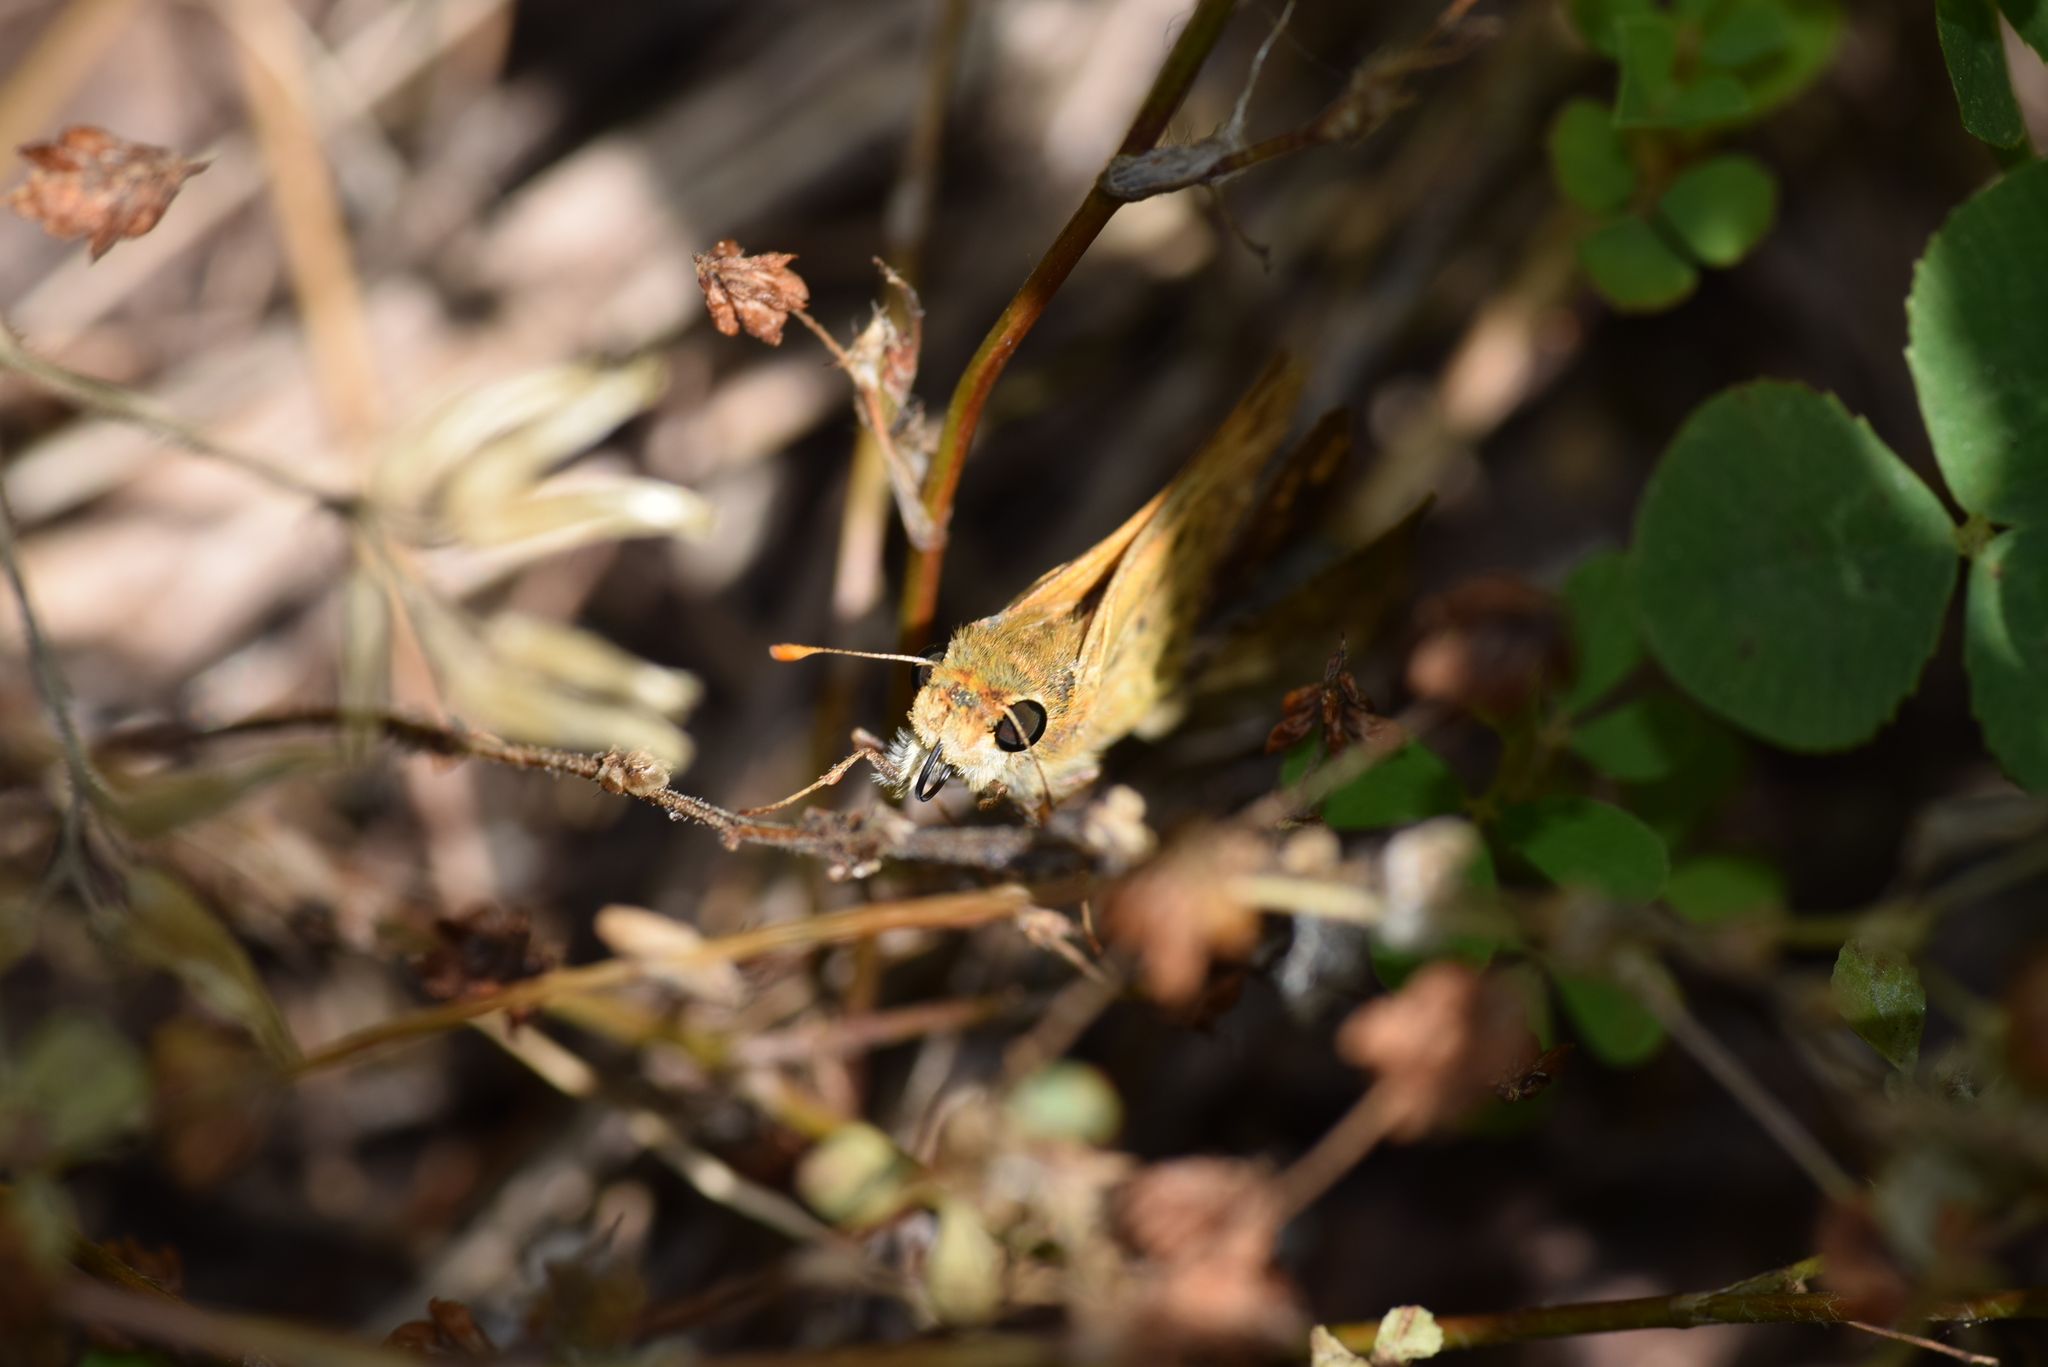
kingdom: Animalia
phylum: Arthropoda
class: Insecta
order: Lepidoptera
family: Hesperiidae
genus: Hylephila
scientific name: Hylephila phyleus
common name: Fiery skipper
